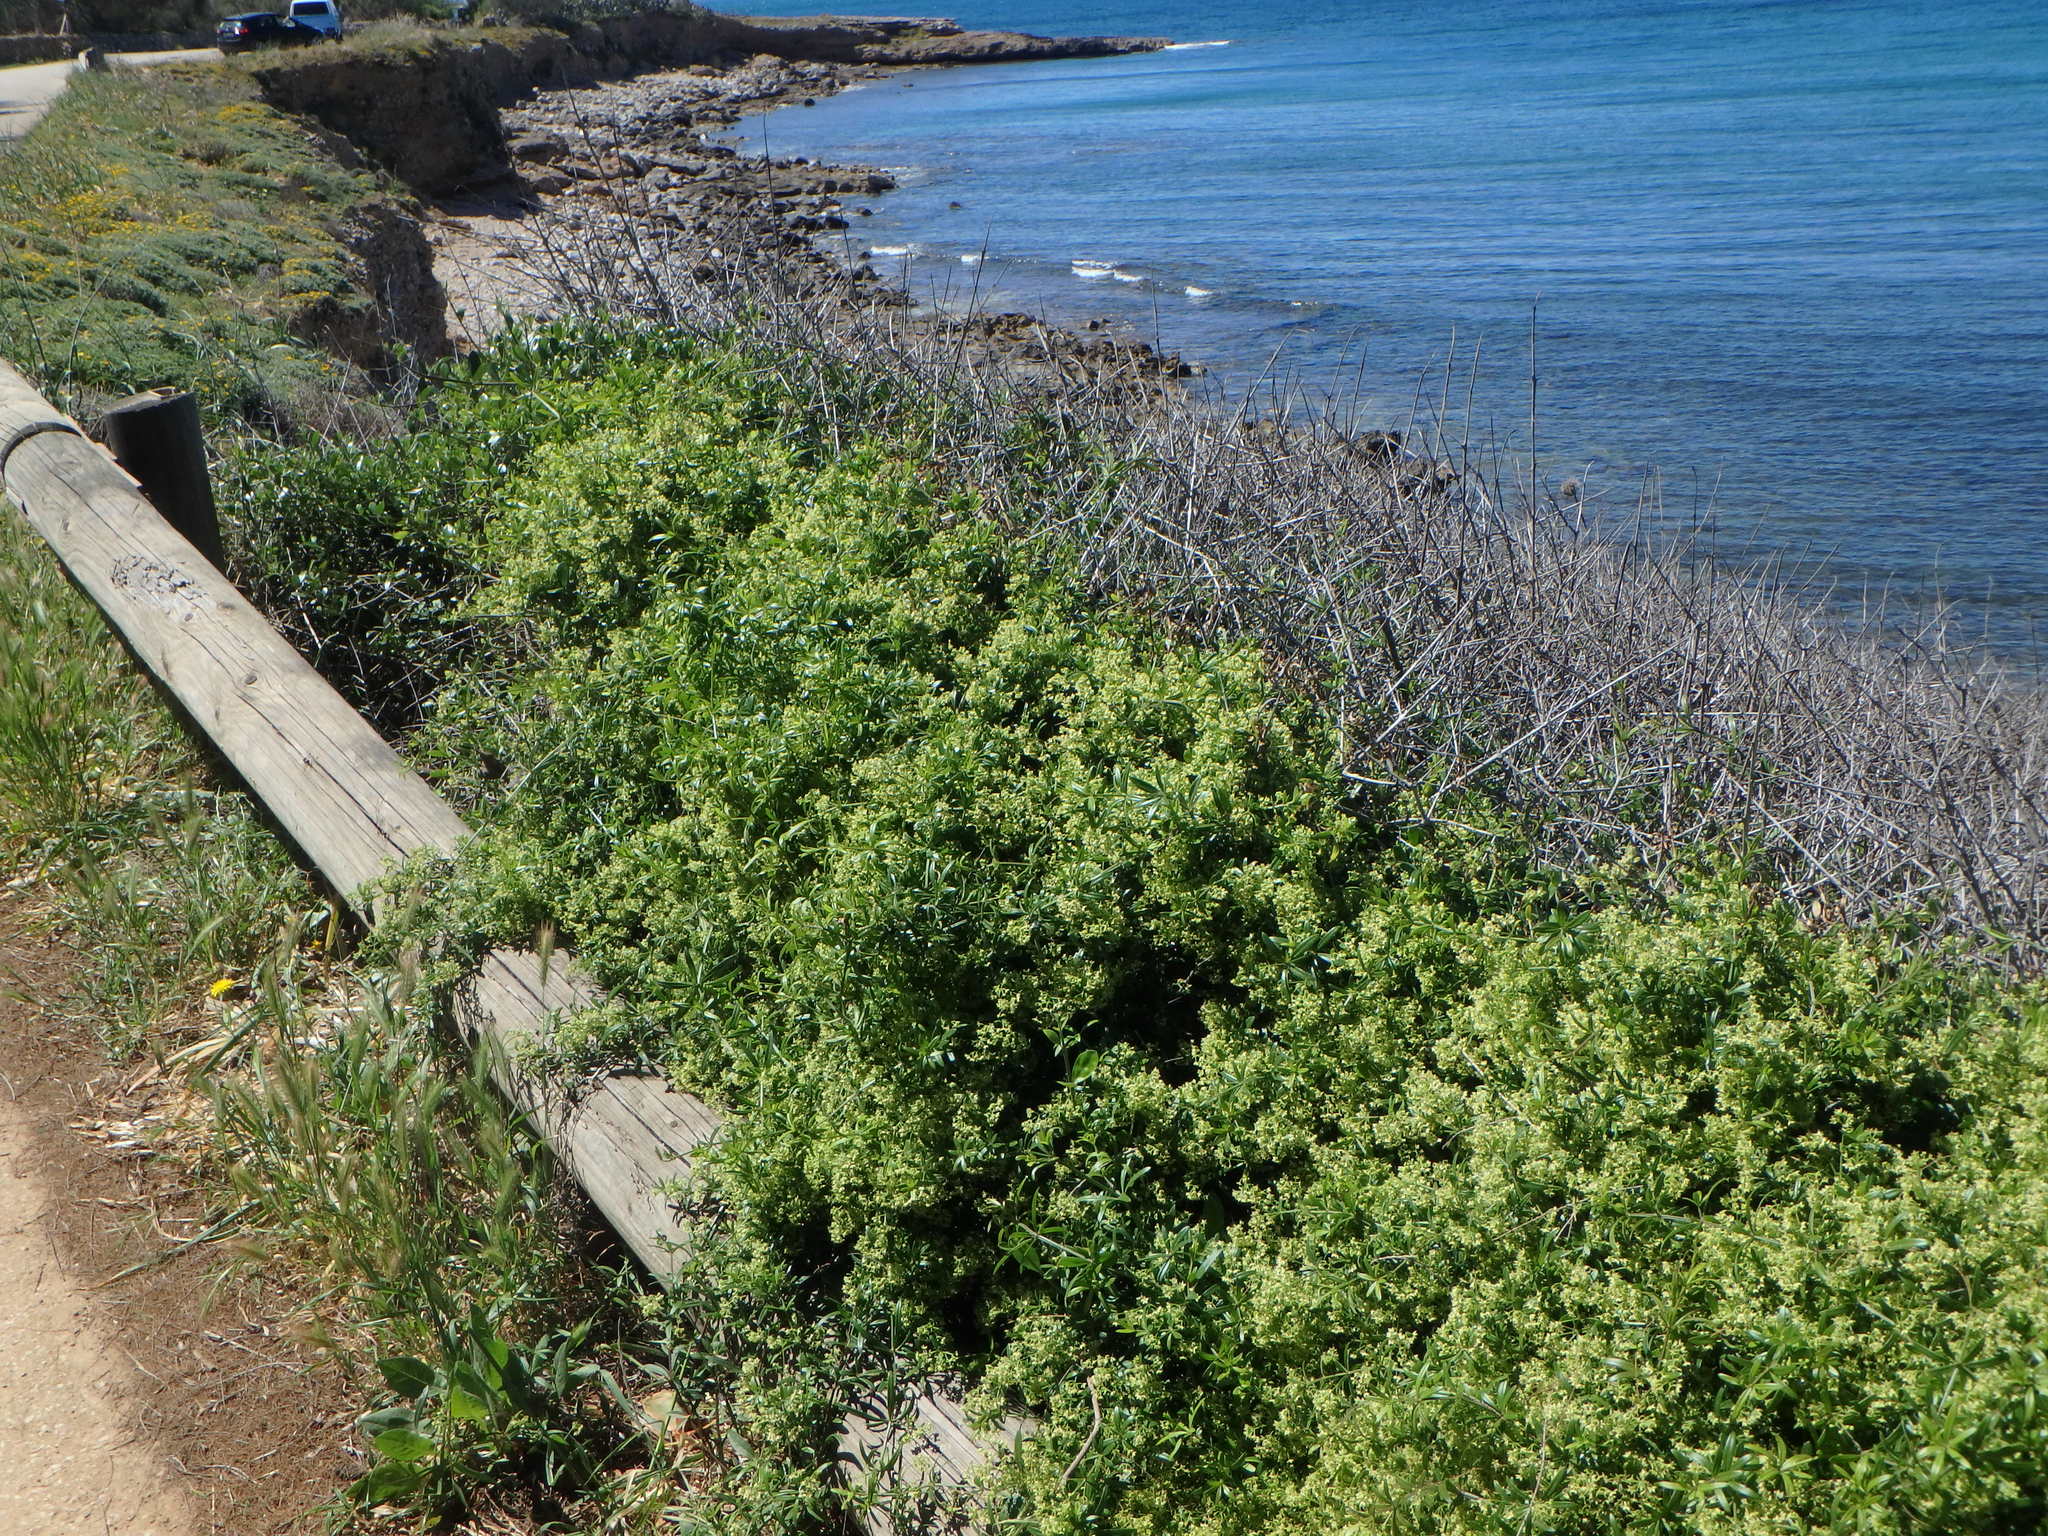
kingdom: Plantae
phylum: Tracheophyta
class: Magnoliopsida
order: Gentianales
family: Rubiaceae
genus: Rubia
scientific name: Rubia peregrina
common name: Wild madder
